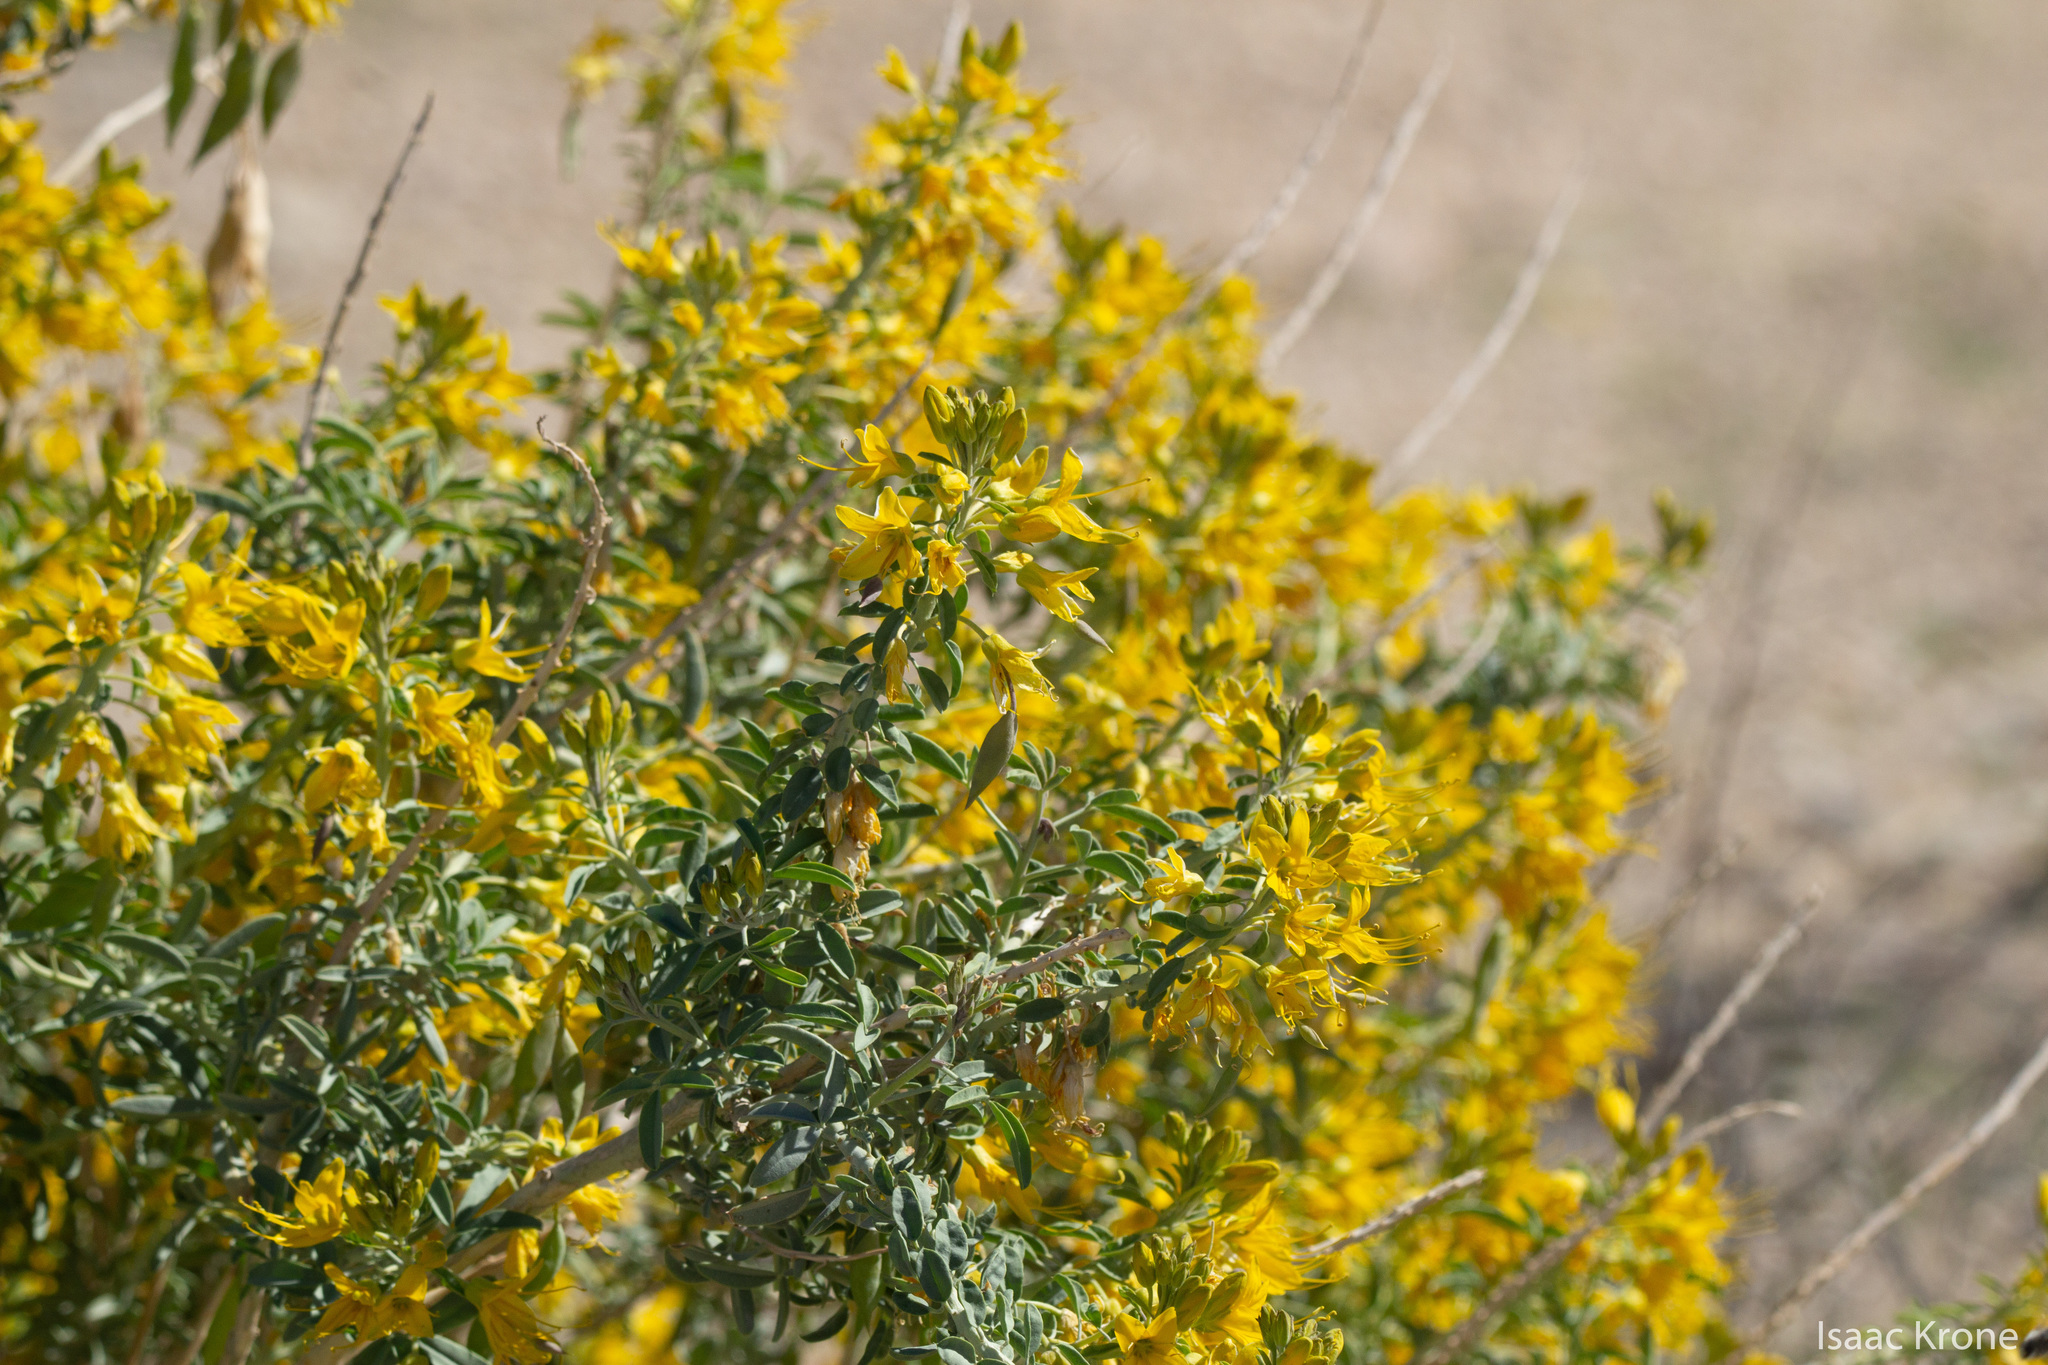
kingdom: Plantae
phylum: Tracheophyta
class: Magnoliopsida
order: Brassicales
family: Cleomaceae
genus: Cleomella
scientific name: Cleomella arborea
